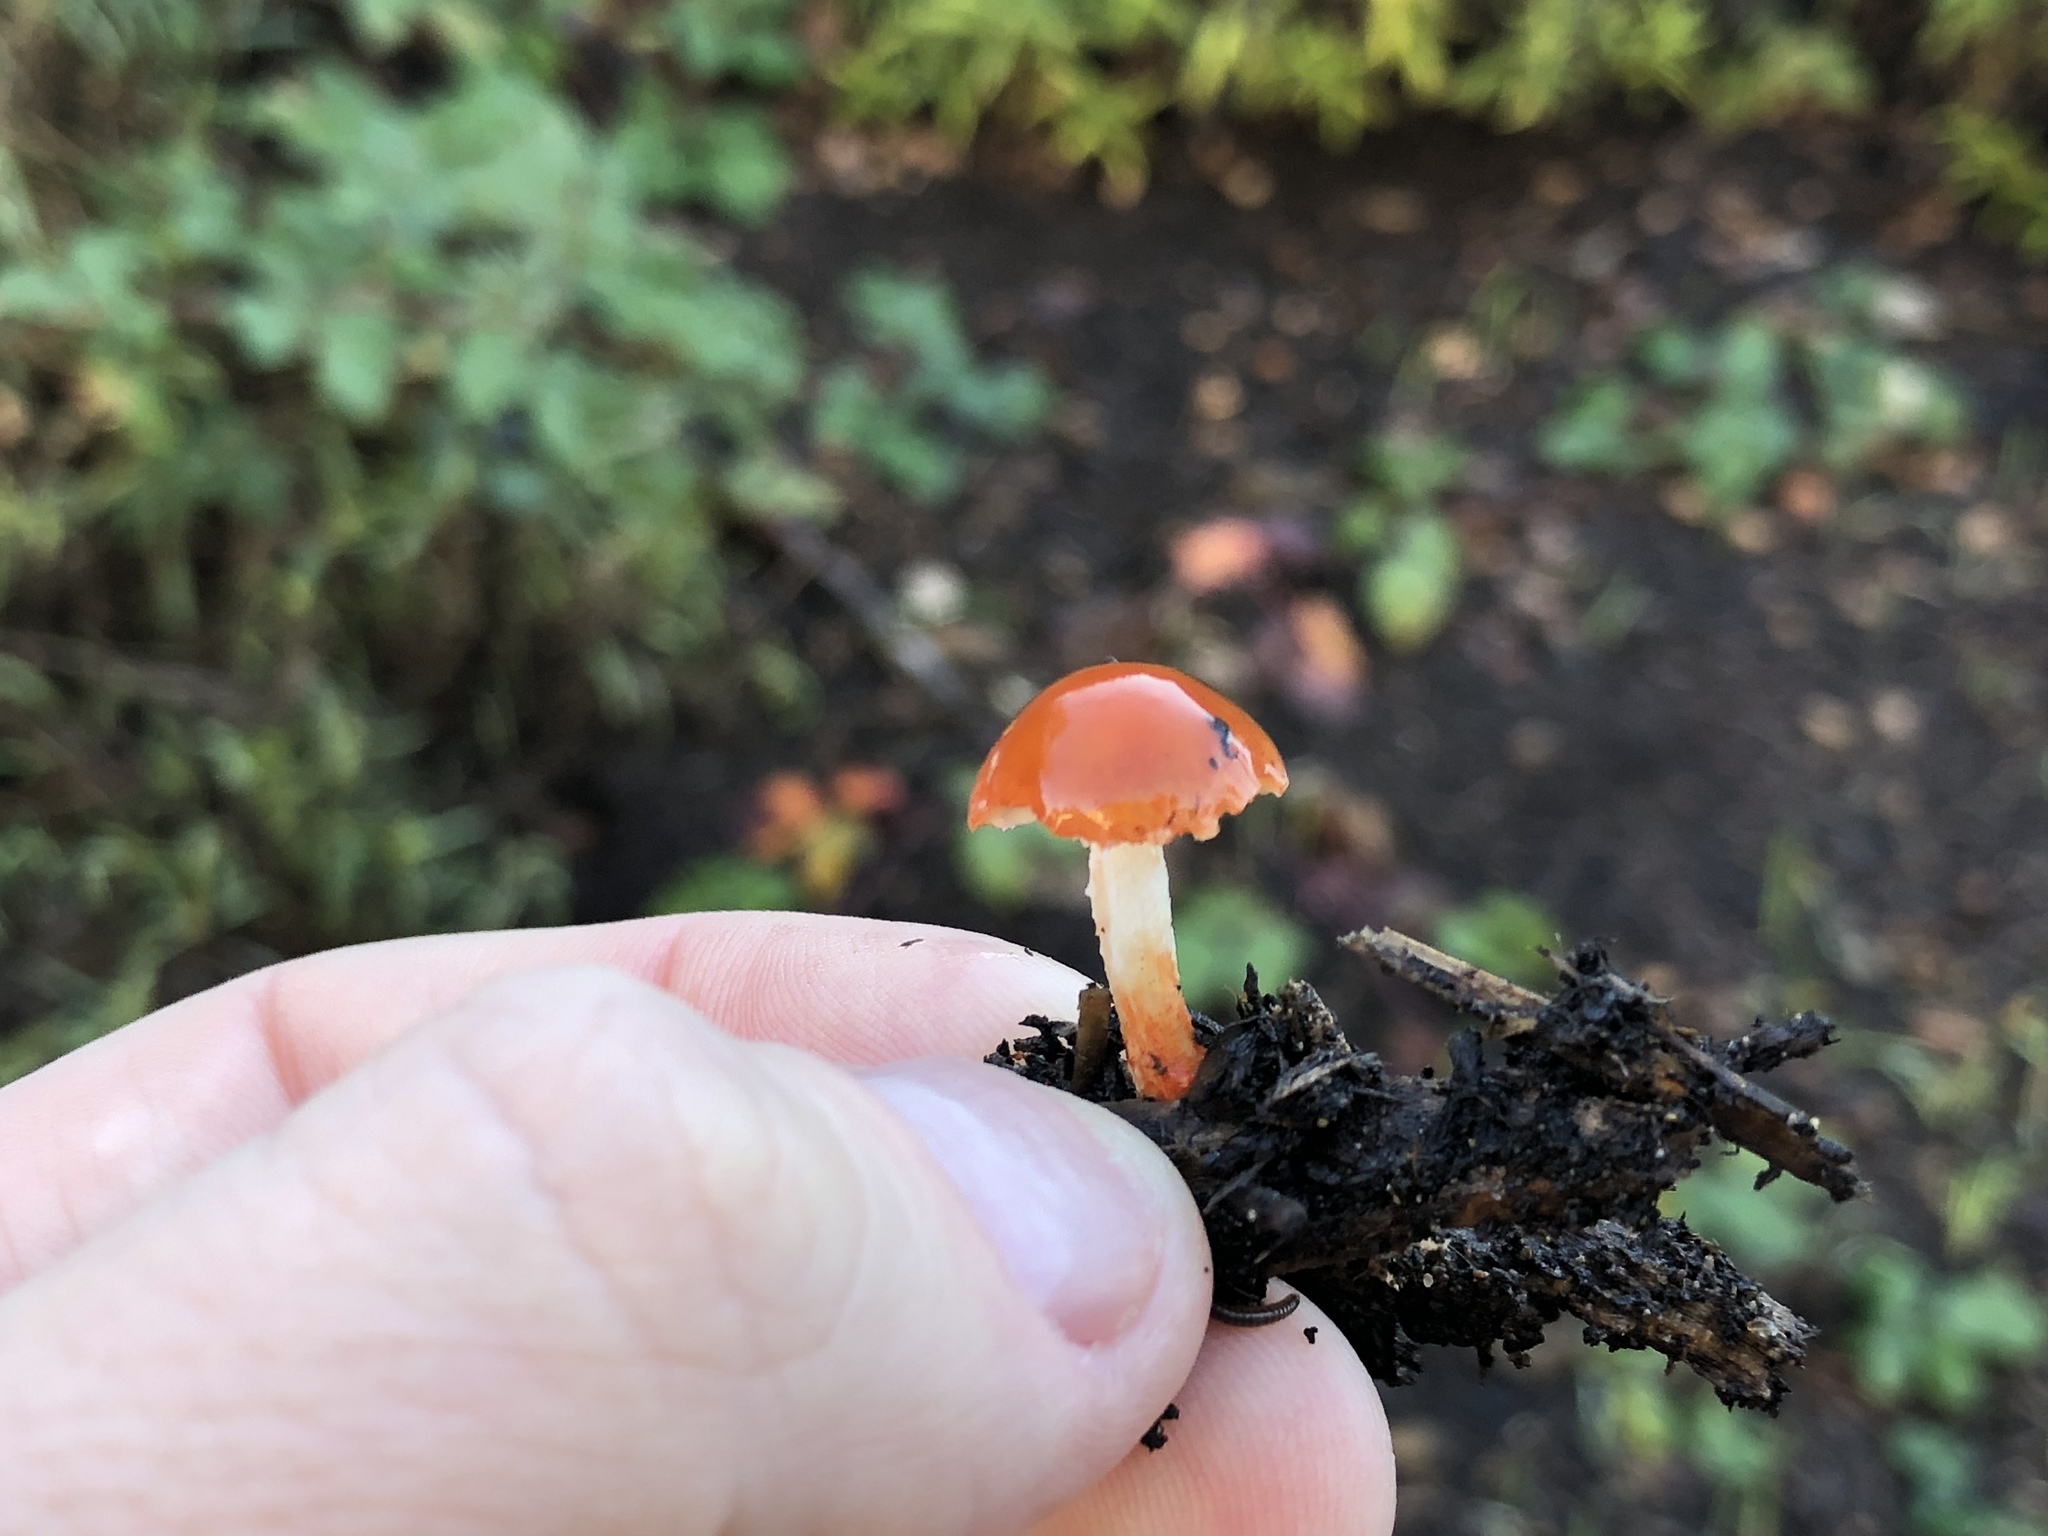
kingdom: Fungi
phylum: Basidiomycota
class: Agaricomycetes
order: Agaricales
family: Strophariaceae
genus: Leratiomyces
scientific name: Leratiomyces ceres
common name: Redlead roundhead
